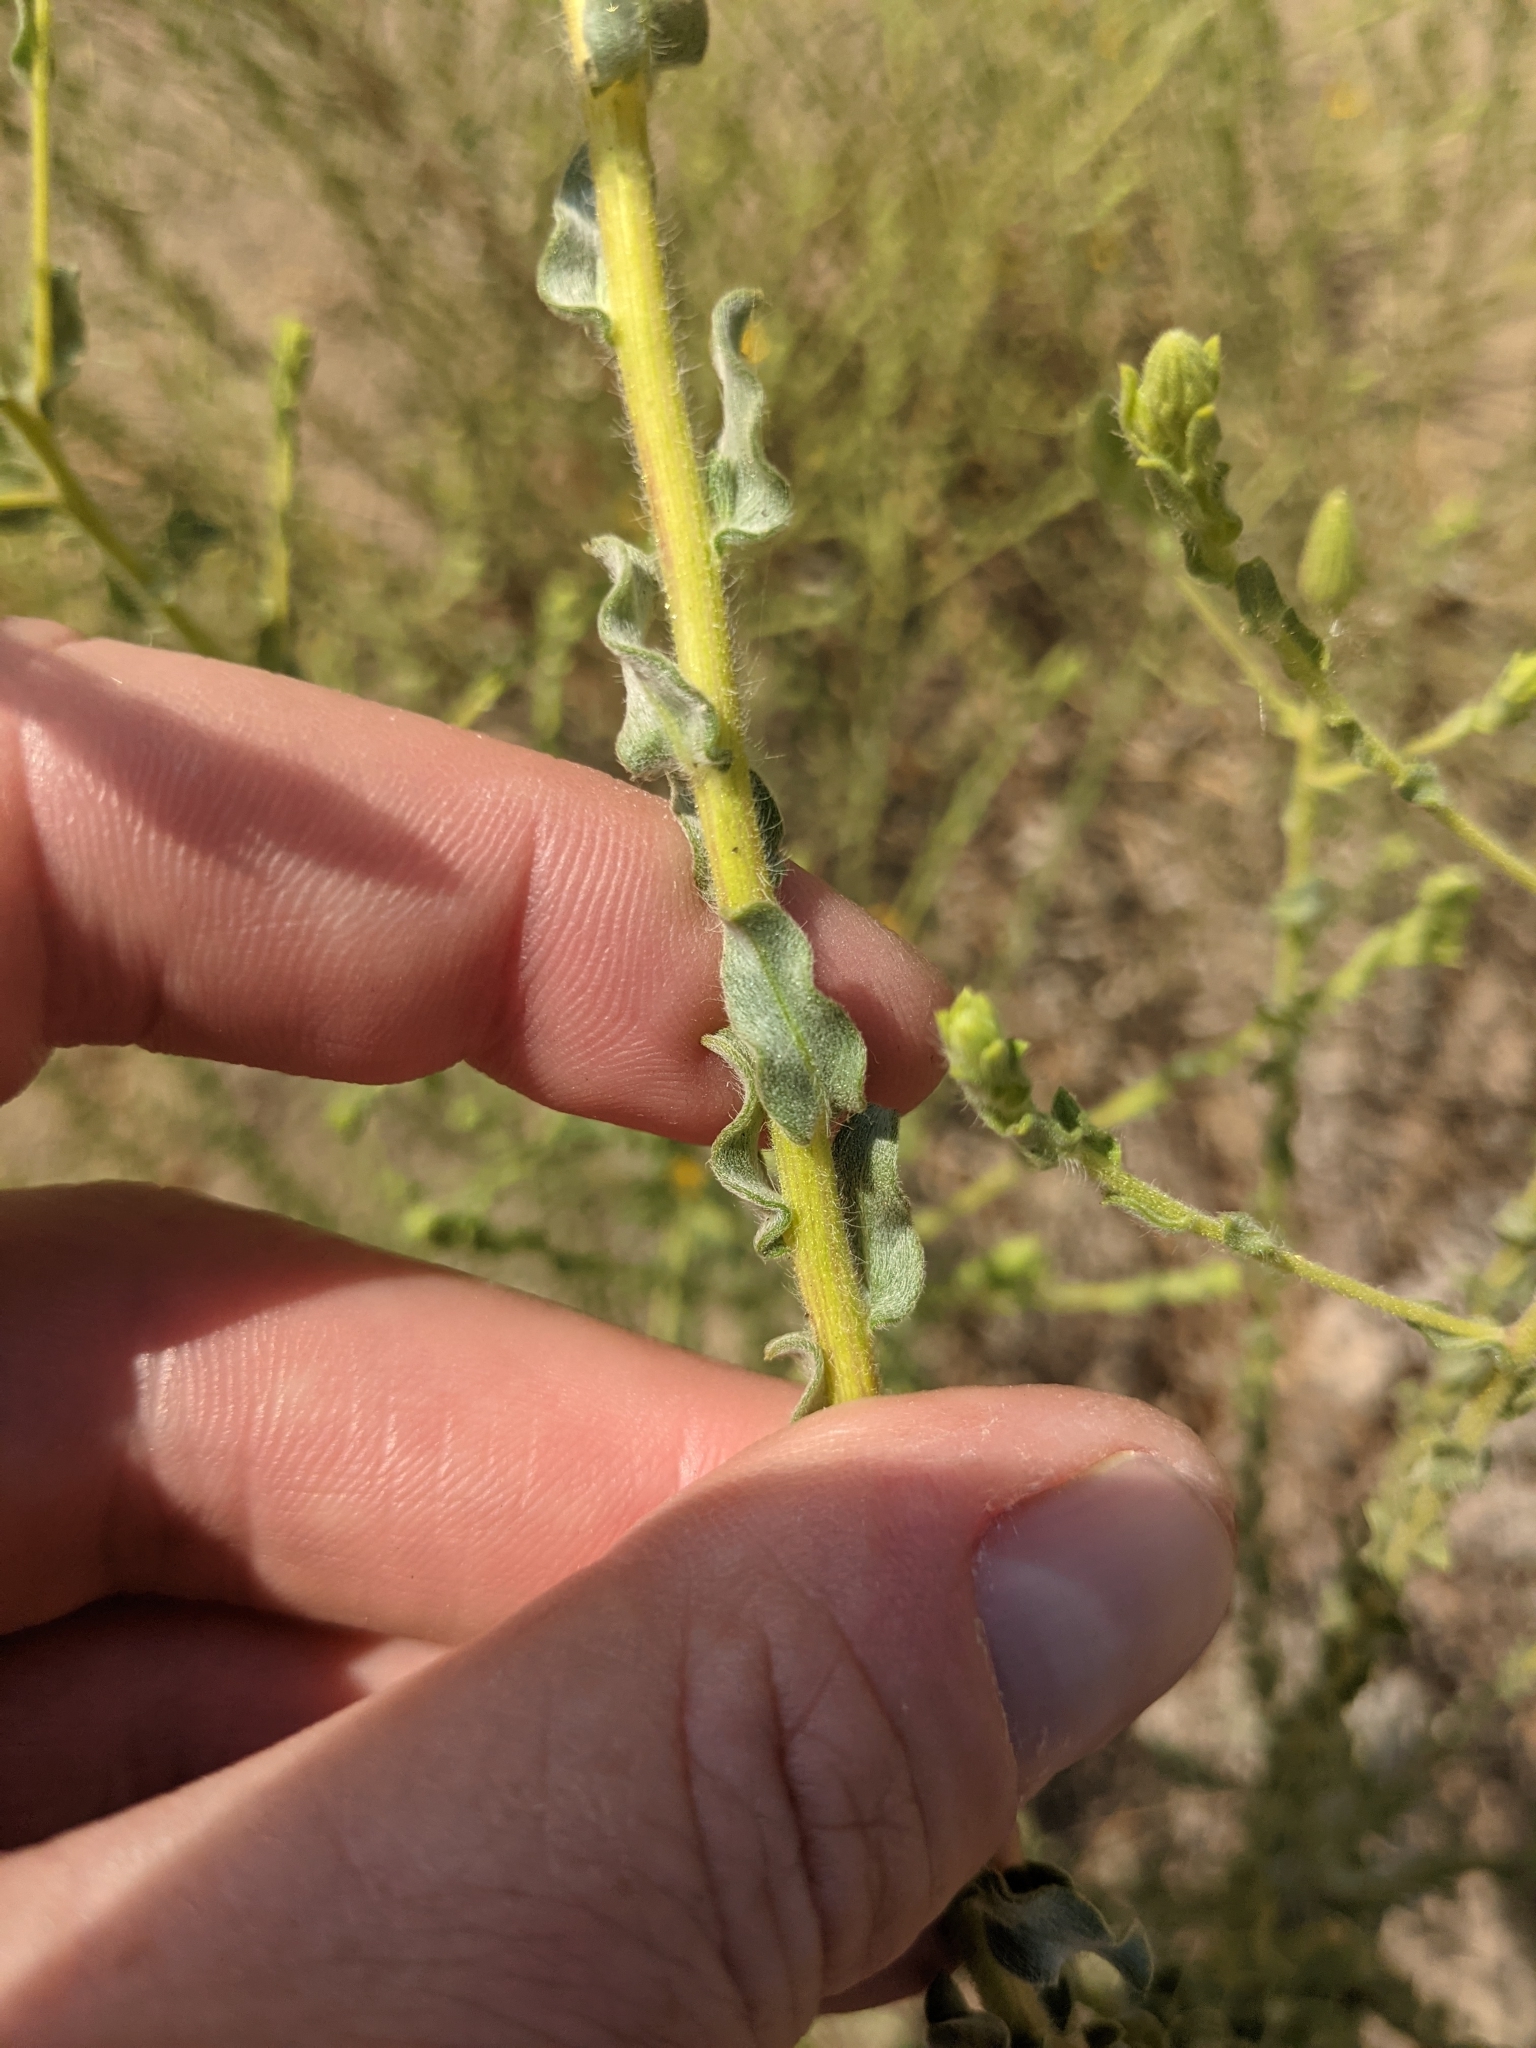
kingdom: Plantae
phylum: Tracheophyta
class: Magnoliopsida
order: Asterales
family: Asteraceae
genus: Heterotheca
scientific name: Heterotheca sessiliflora
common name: Sessile-flower golden-aster
